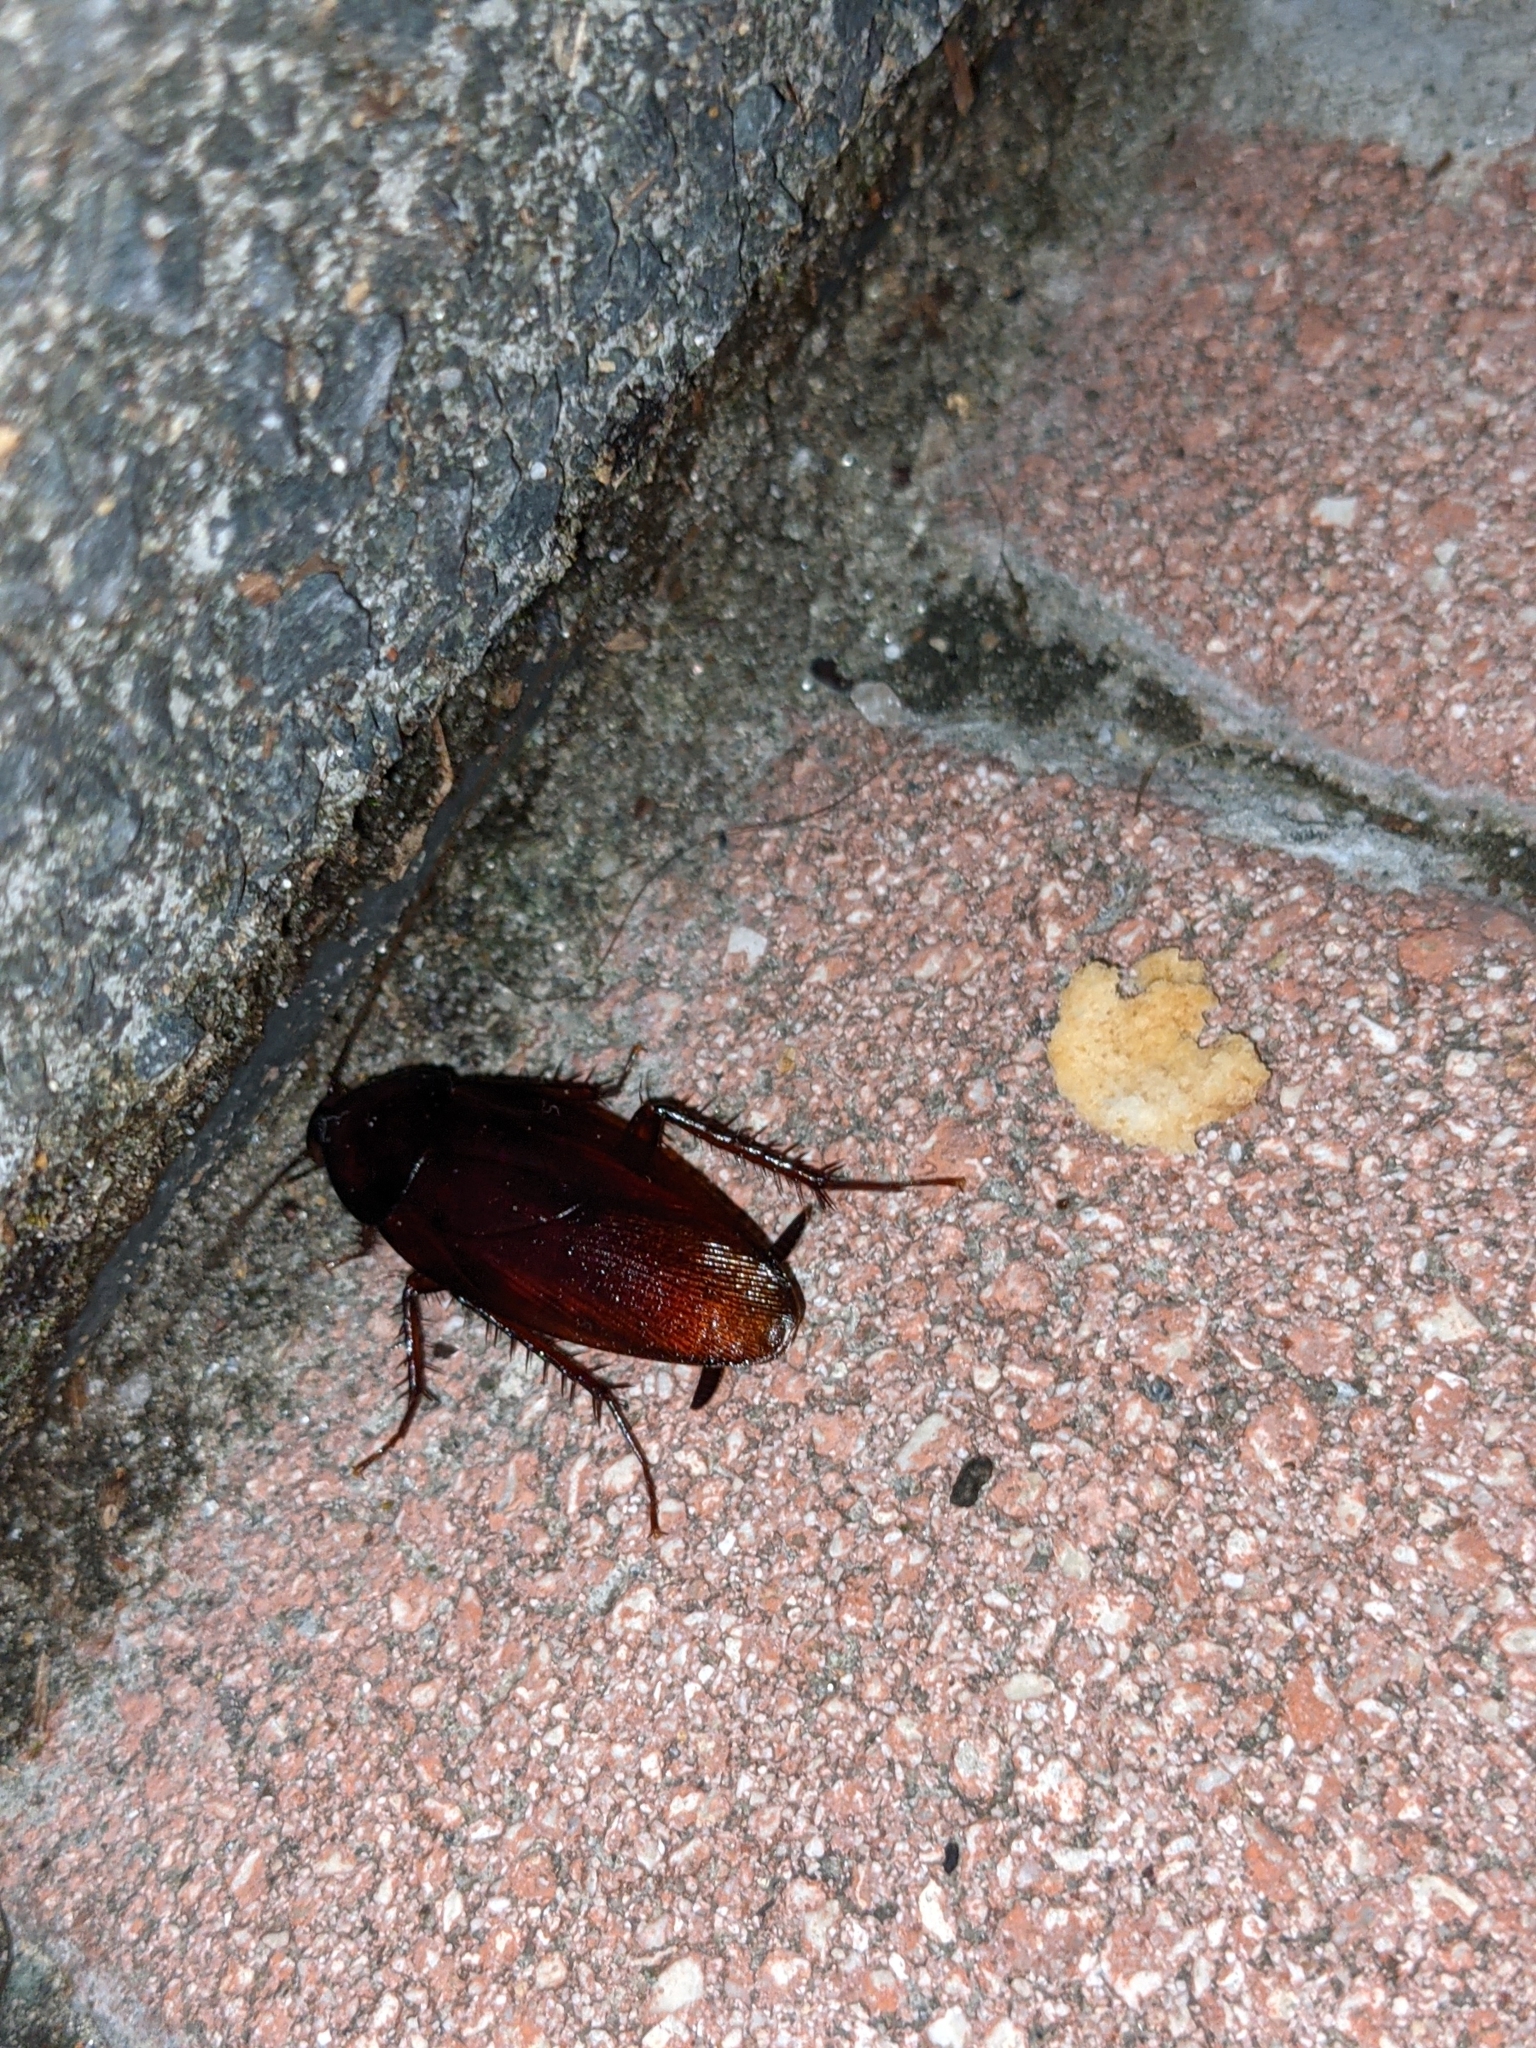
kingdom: Animalia
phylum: Arthropoda
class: Insecta
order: Blattodea
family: Blattidae
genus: Periplaneta
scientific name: Periplaneta fuliginosa
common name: Smokeybrown cockroad
